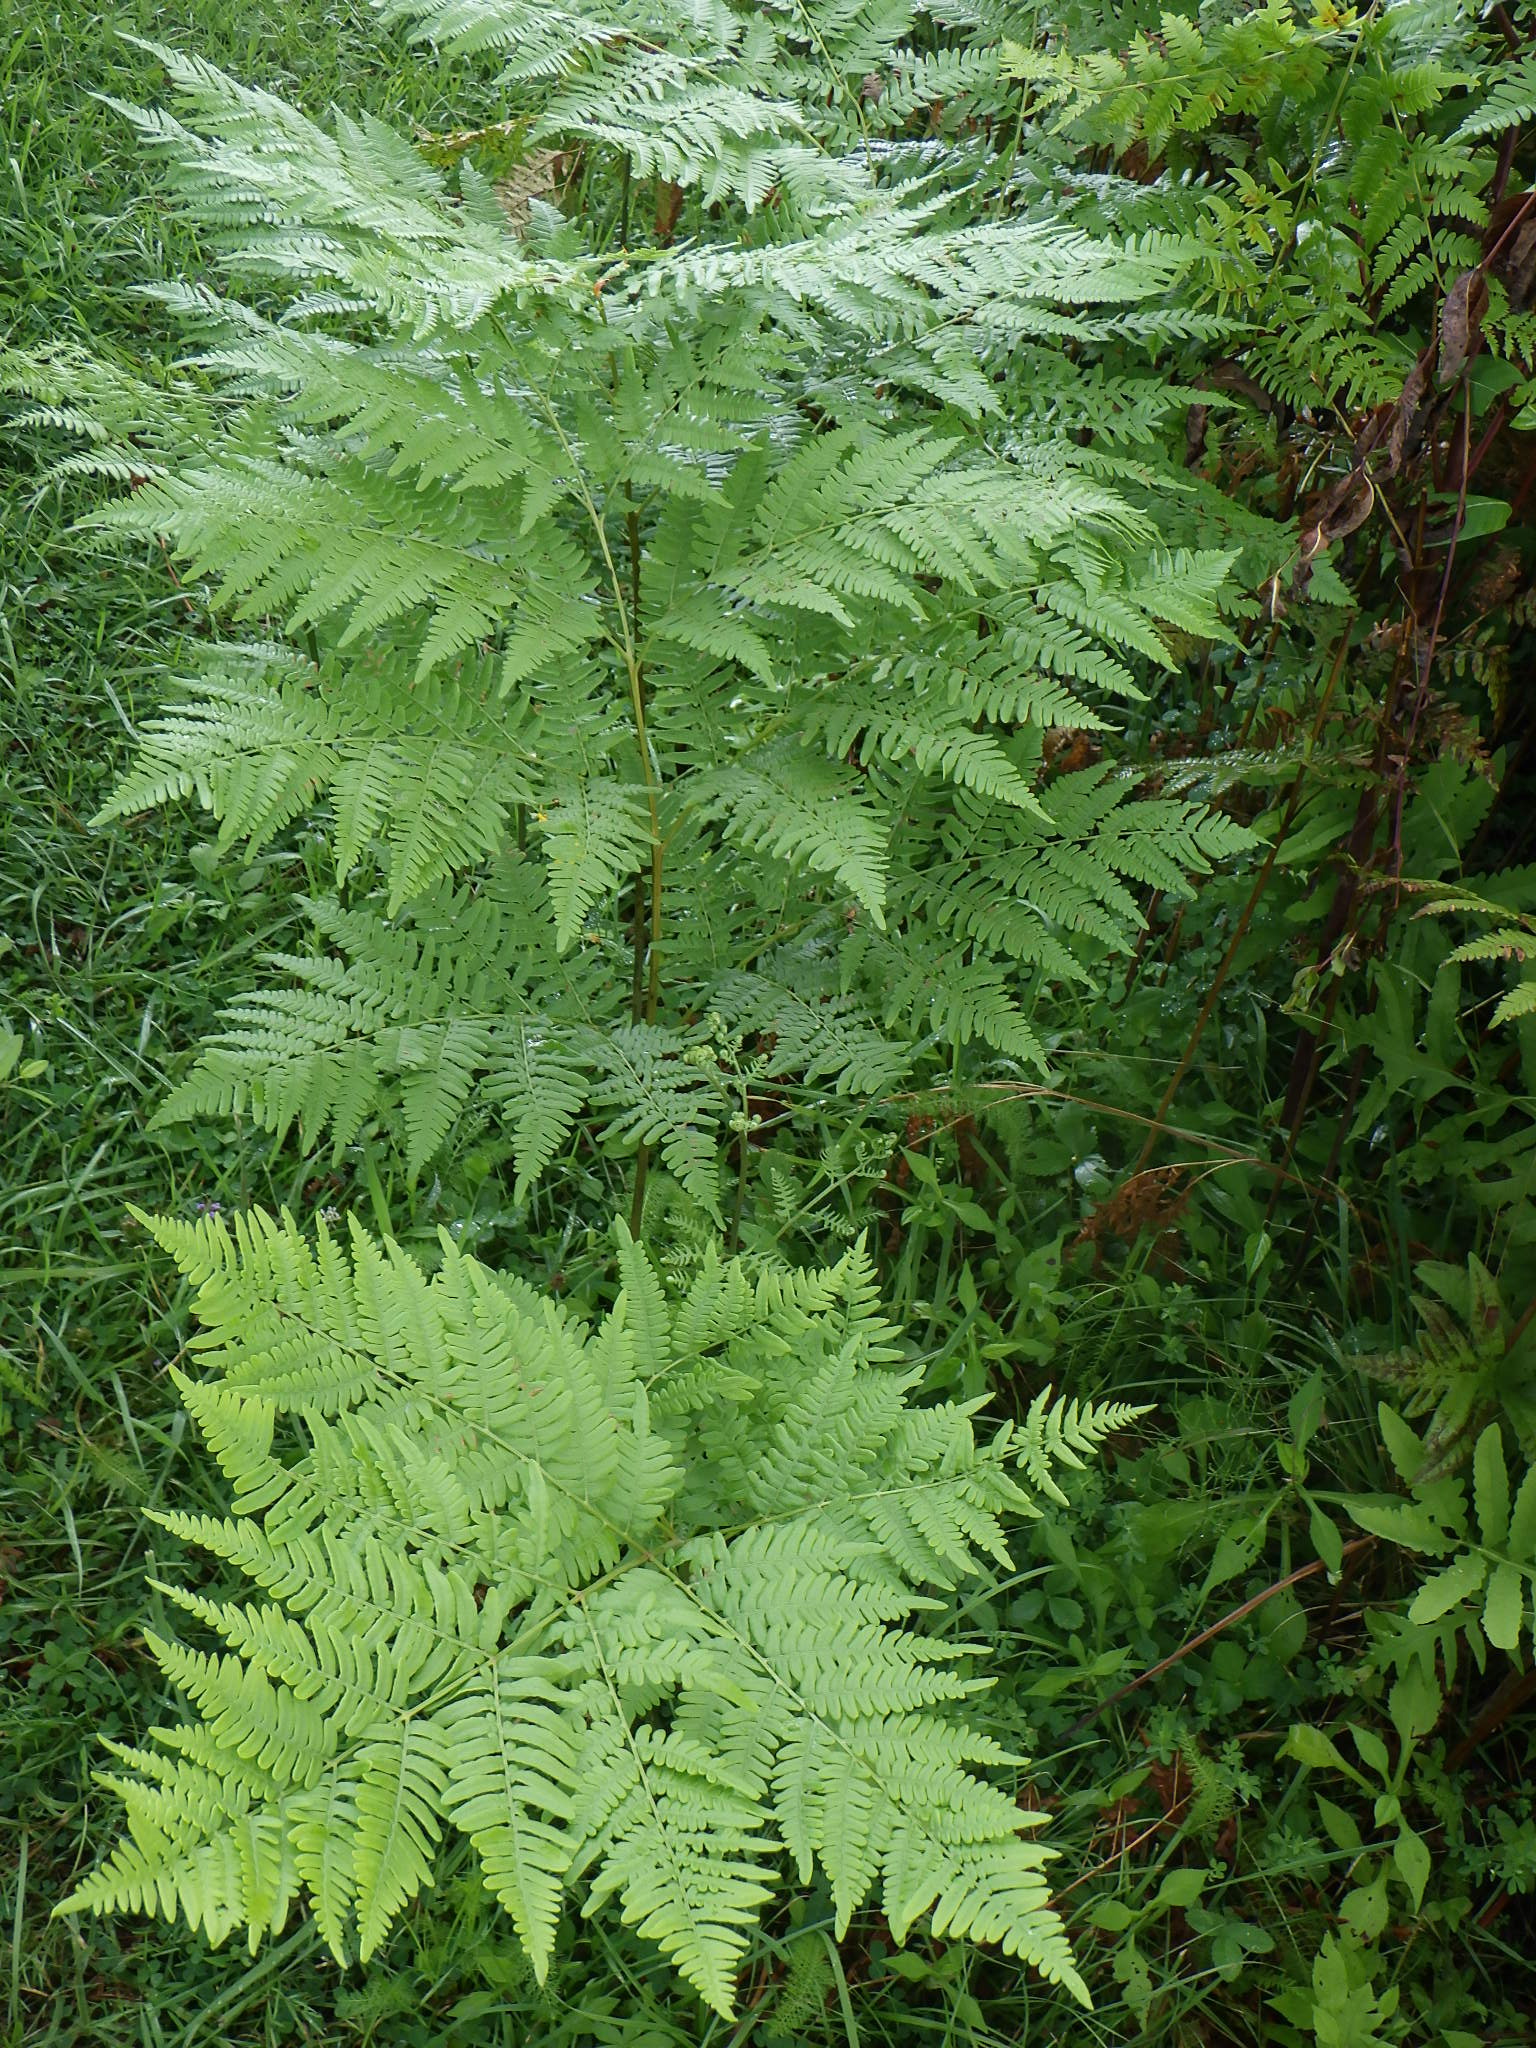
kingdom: Plantae
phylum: Tracheophyta
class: Polypodiopsida
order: Polypodiales
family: Dennstaedtiaceae
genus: Pteridium
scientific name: Pteridium aquilinum
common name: Bracken
